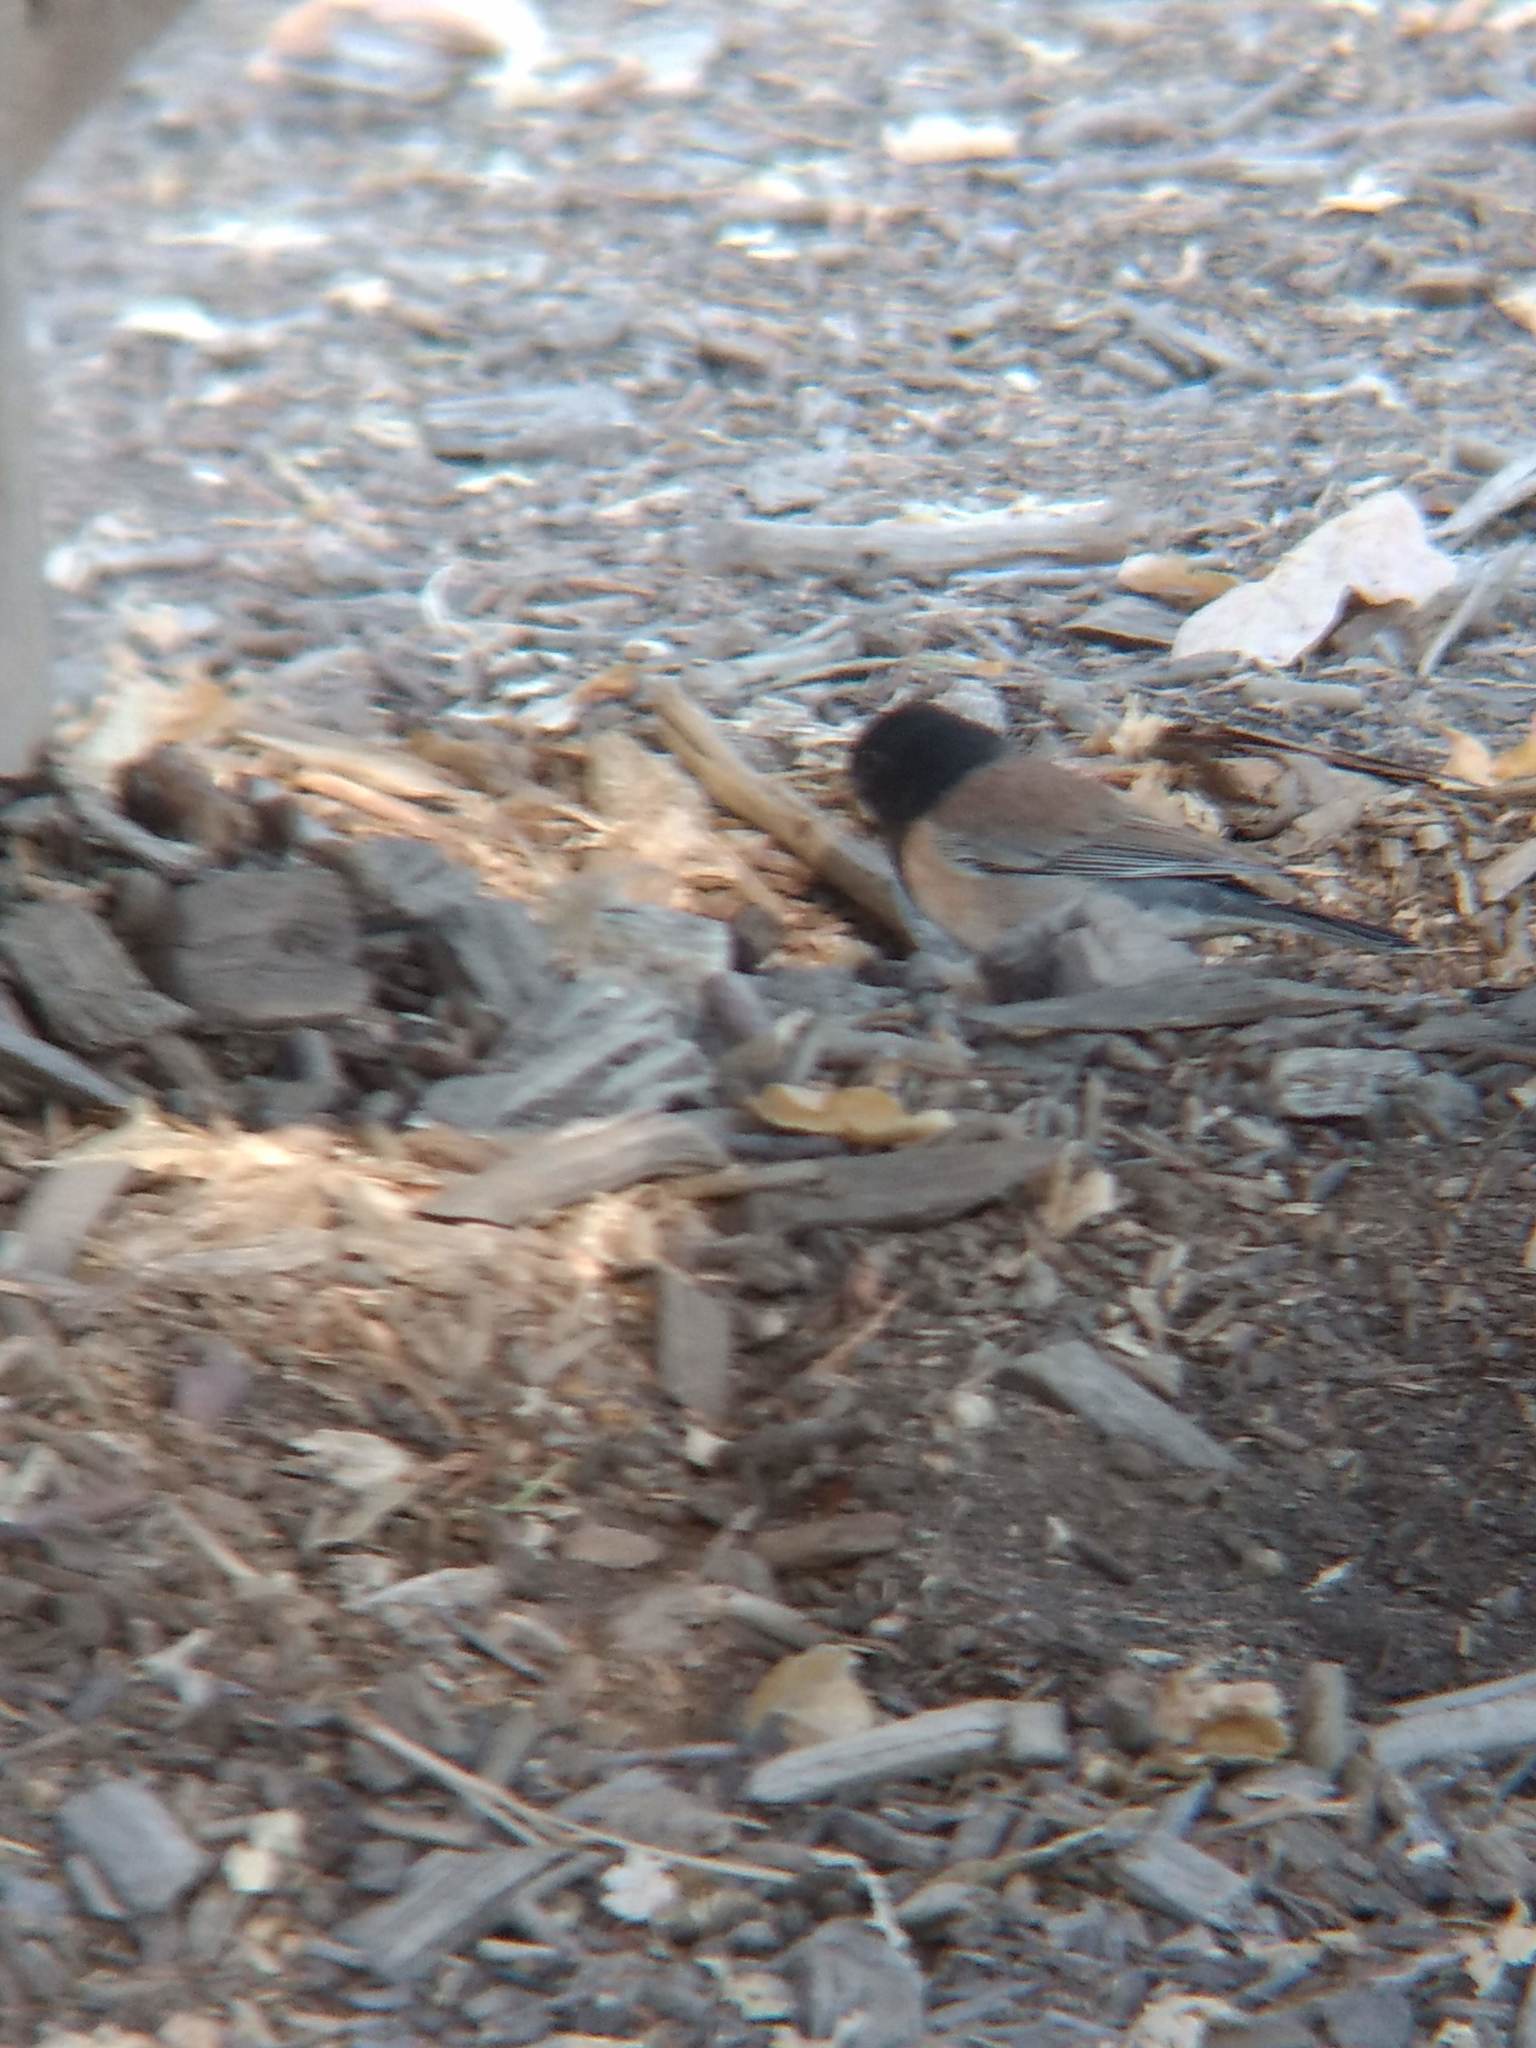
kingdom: Animalia
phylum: Chordata
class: Aves
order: Passeriformes
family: Passerellidae
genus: Junco
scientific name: Junco hyemalis
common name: Dark-eyed junco
